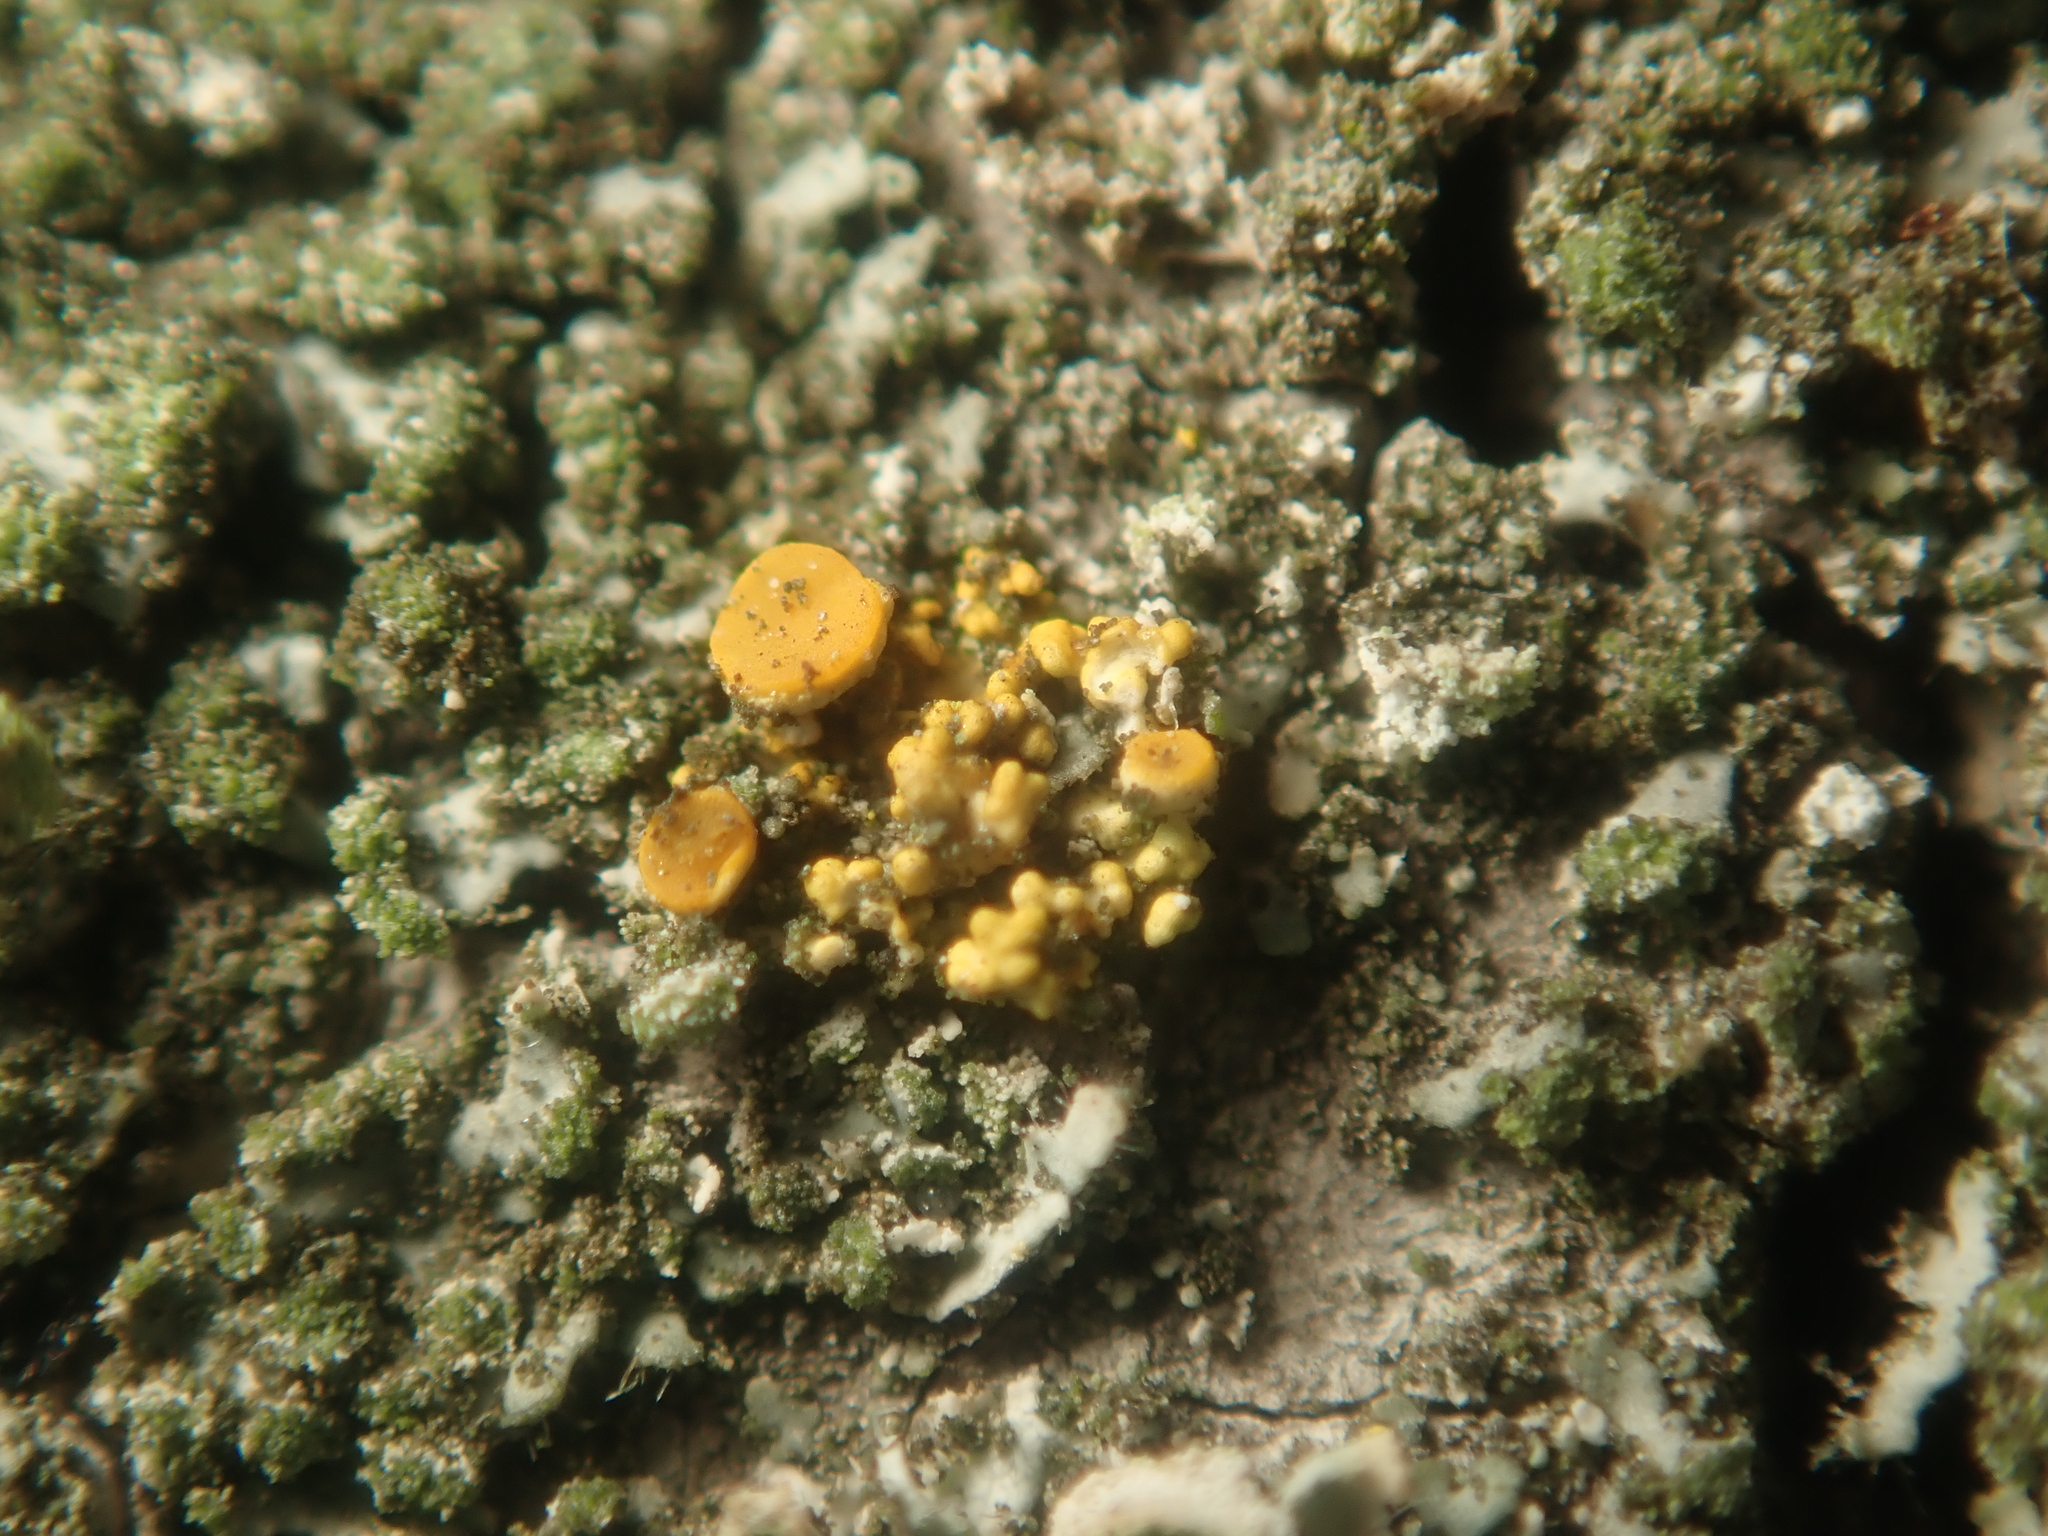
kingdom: Fungi
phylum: Ascomycota
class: Lecanoromycetes
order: Teloschistales
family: Teloschistaceae
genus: Polycauliona
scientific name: Polycauliona polycarpa
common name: Pin-cushion sunburst lichen
